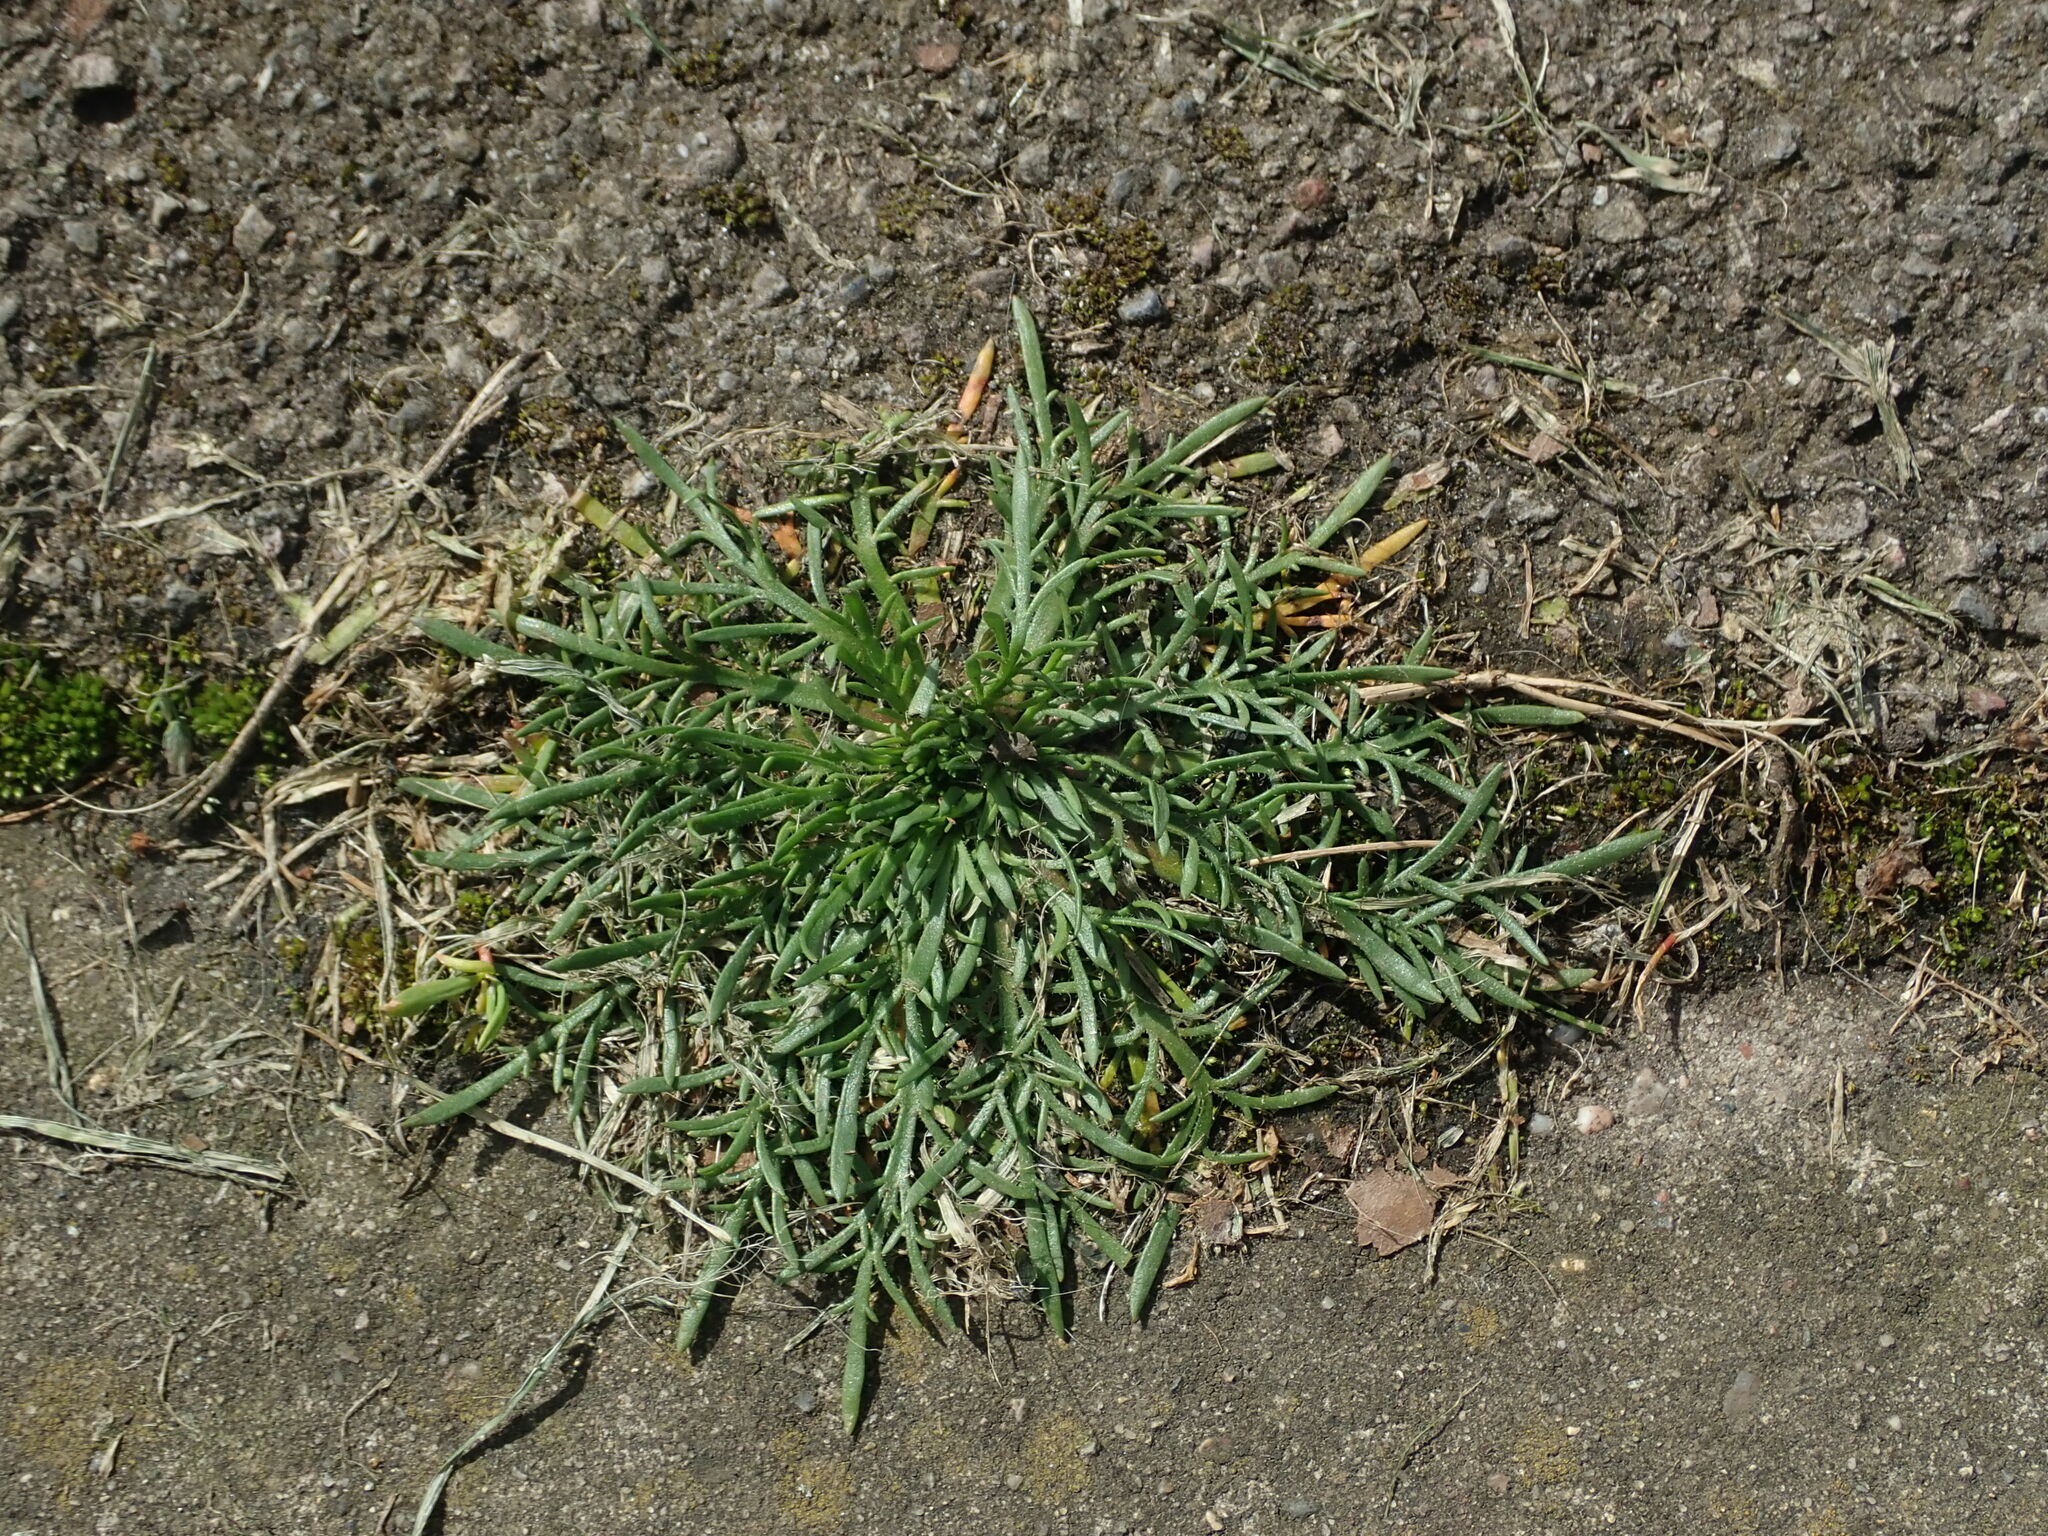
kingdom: Plantae
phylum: Tracheophyta
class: Magnoliopsida
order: Lamiales
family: Plantaginaceae
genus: Plantago
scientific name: Plantago coronopus
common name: Buck's-horn plantain
